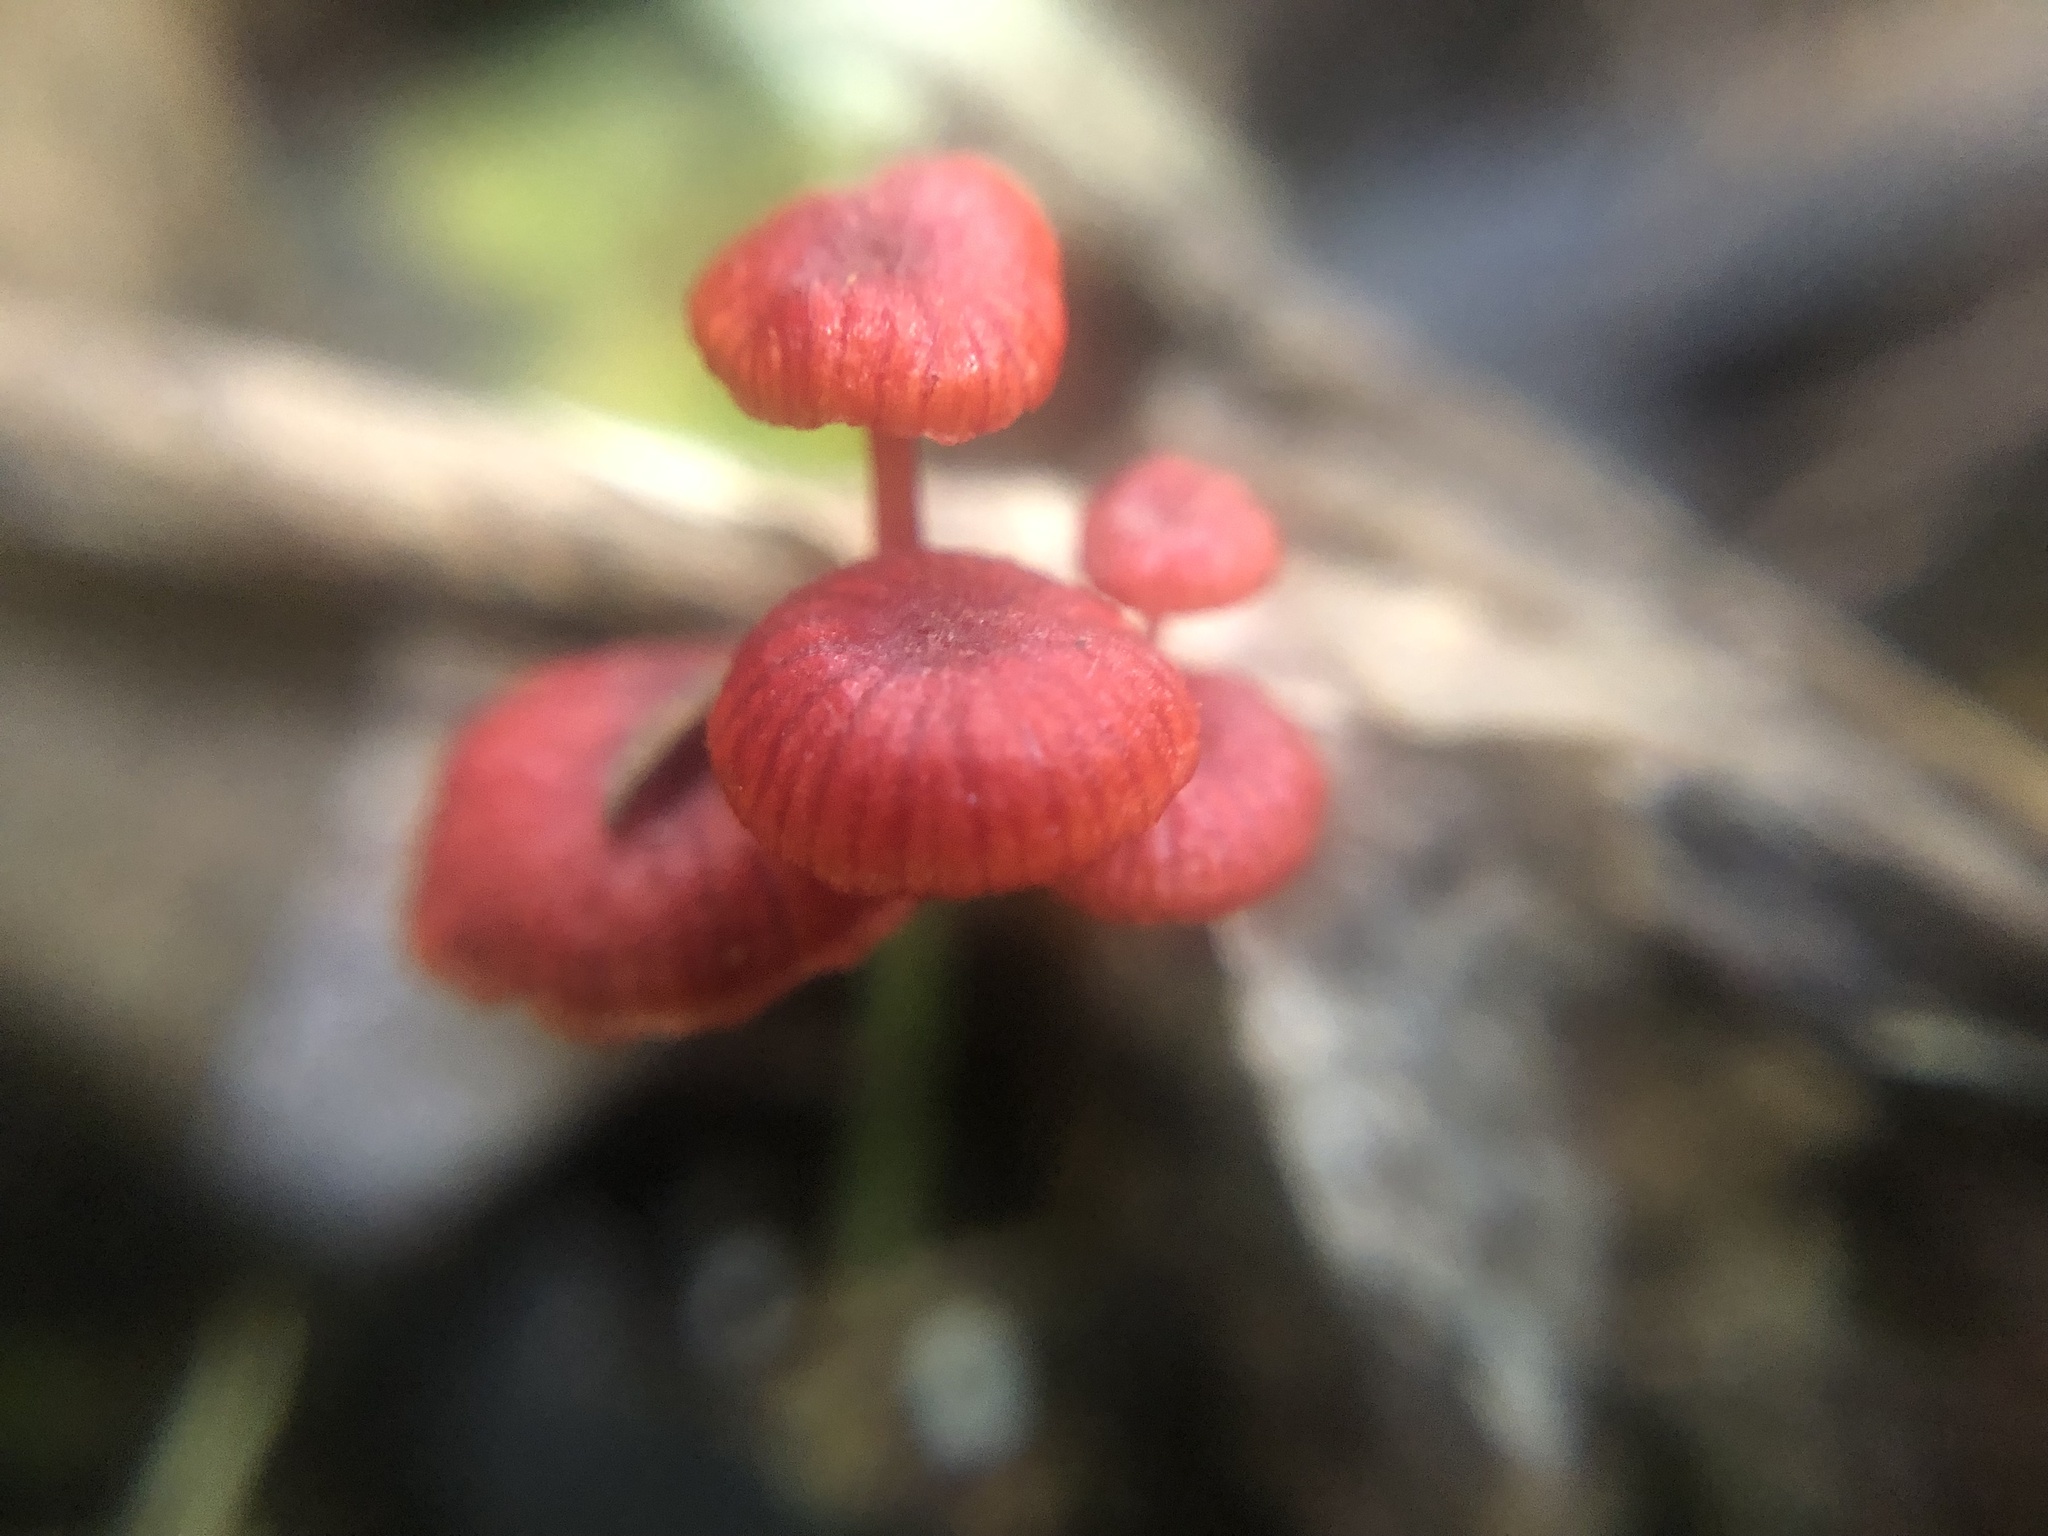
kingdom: Fungi
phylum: Basidiomycota
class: Agaricomycetes
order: Agaricales
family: Mycenaceae
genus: Cruentomycena
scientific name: Cruentomycena viscidocruenta
